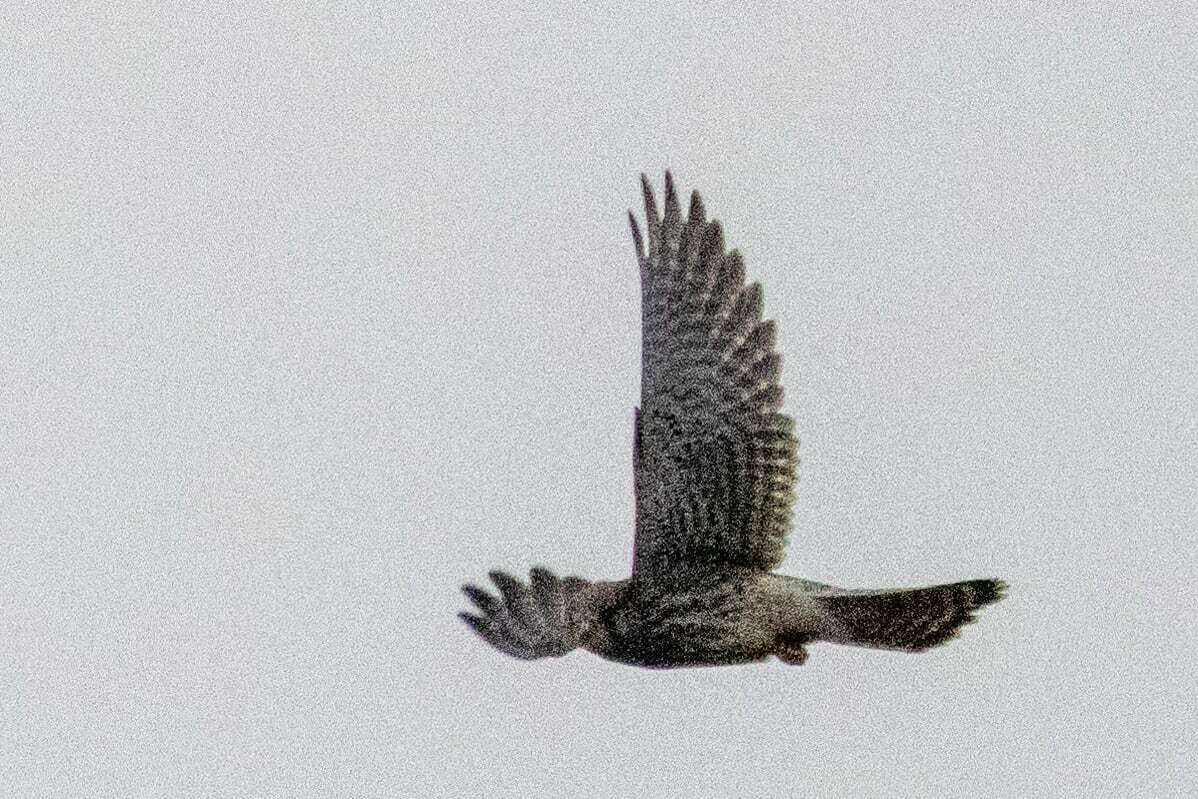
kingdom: Animalia
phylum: Chordata
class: Aves
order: Falconiformes
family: Falconidae
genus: Falco
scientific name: Falco tinnunculus
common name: Common kestrel
